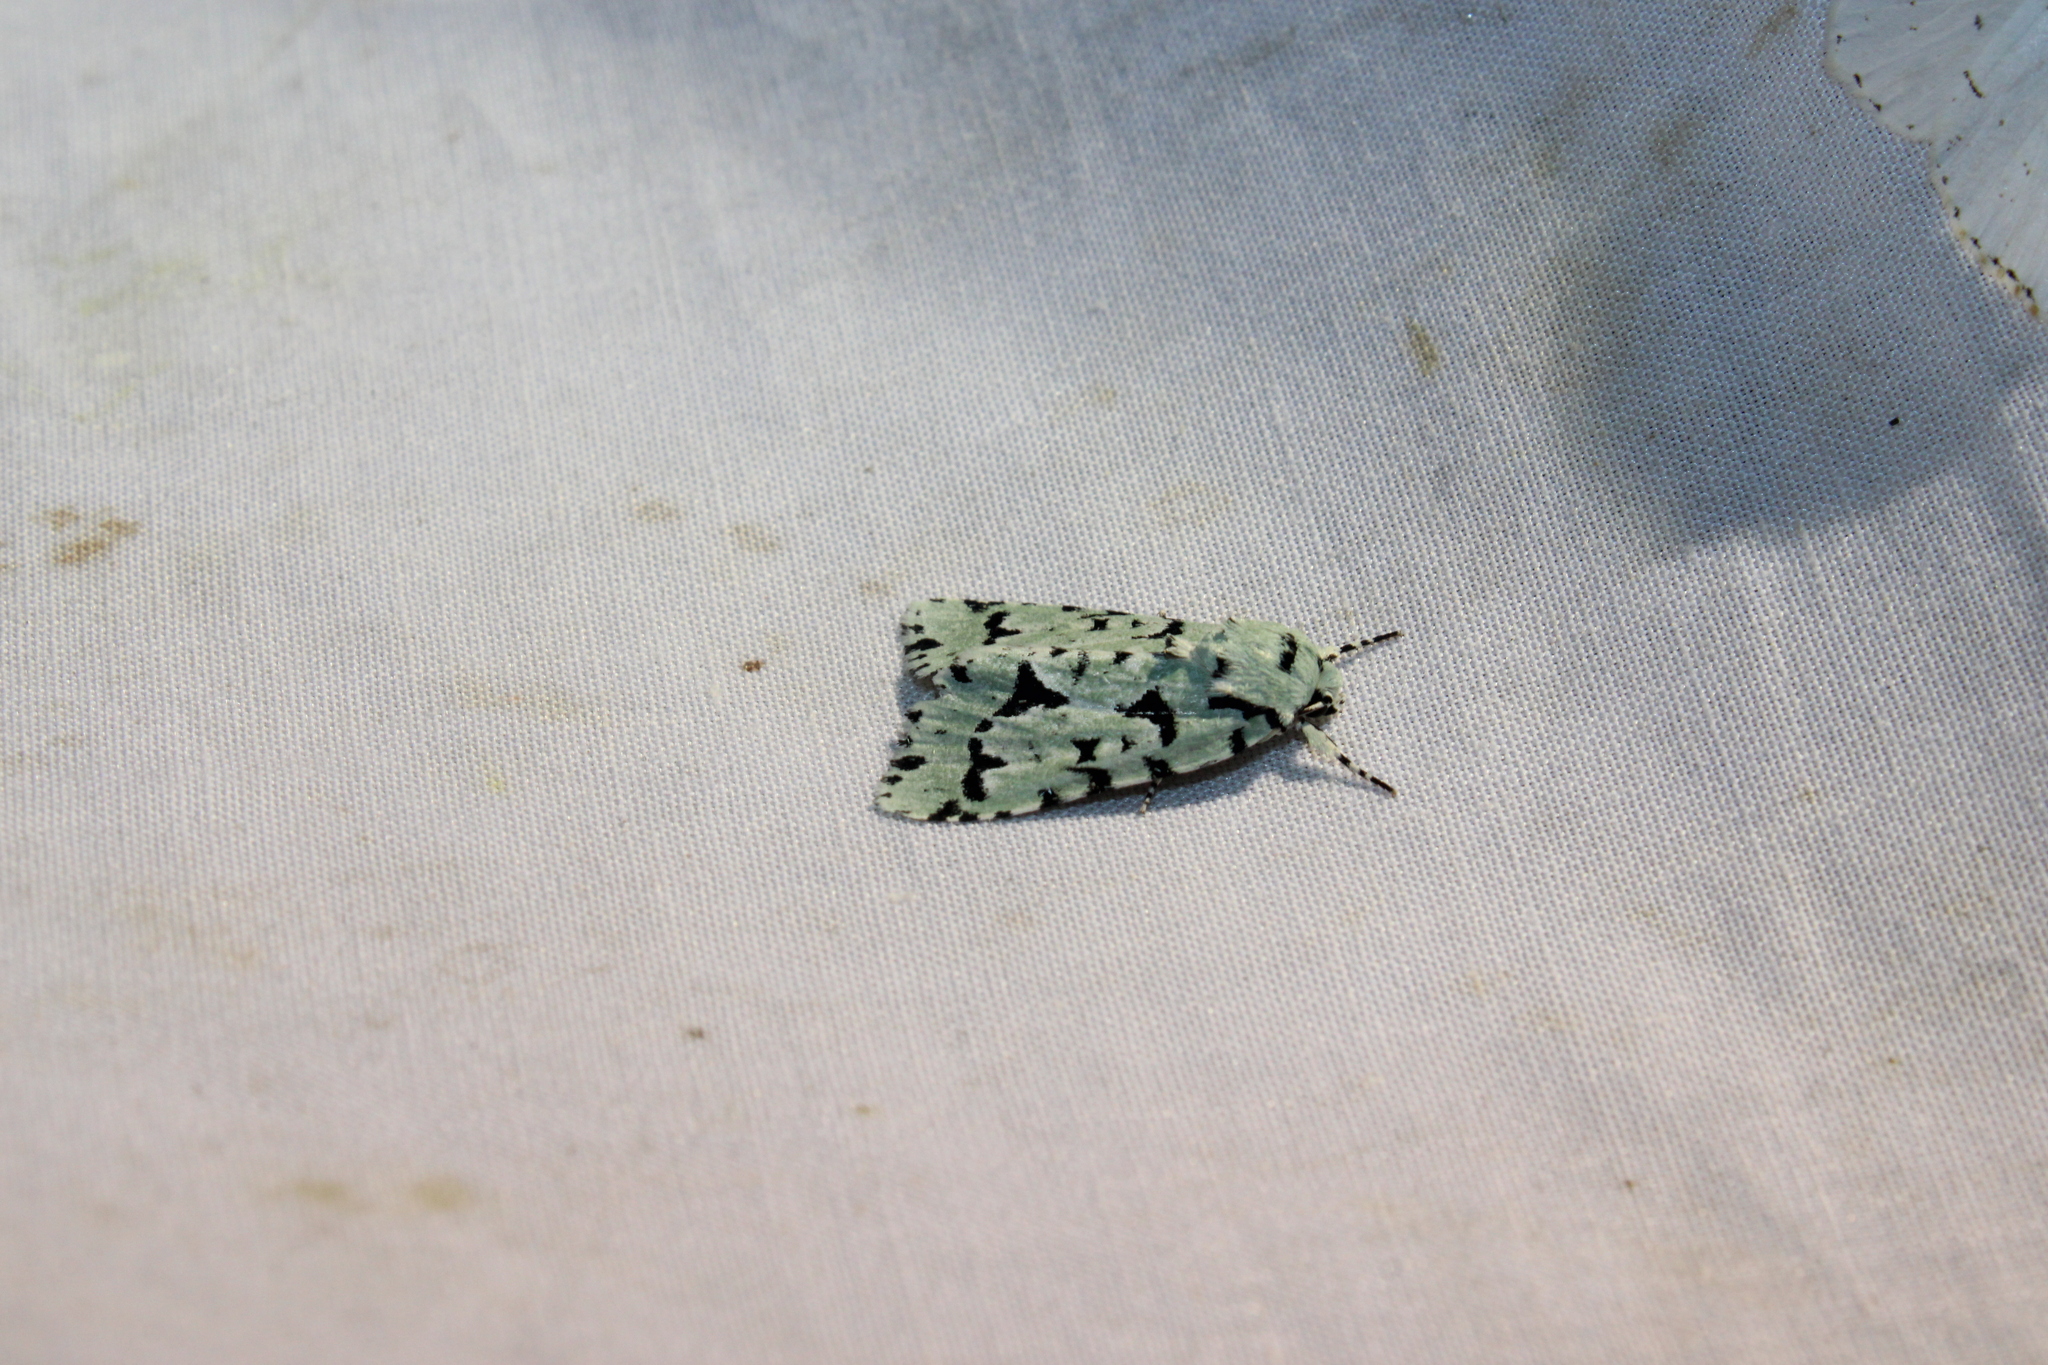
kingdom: Animalia
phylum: Arthropoda
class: Insecta
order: Lepidoptera
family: Noctuidae
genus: Acronicta
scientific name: Acronicta fallax
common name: Green marvel
